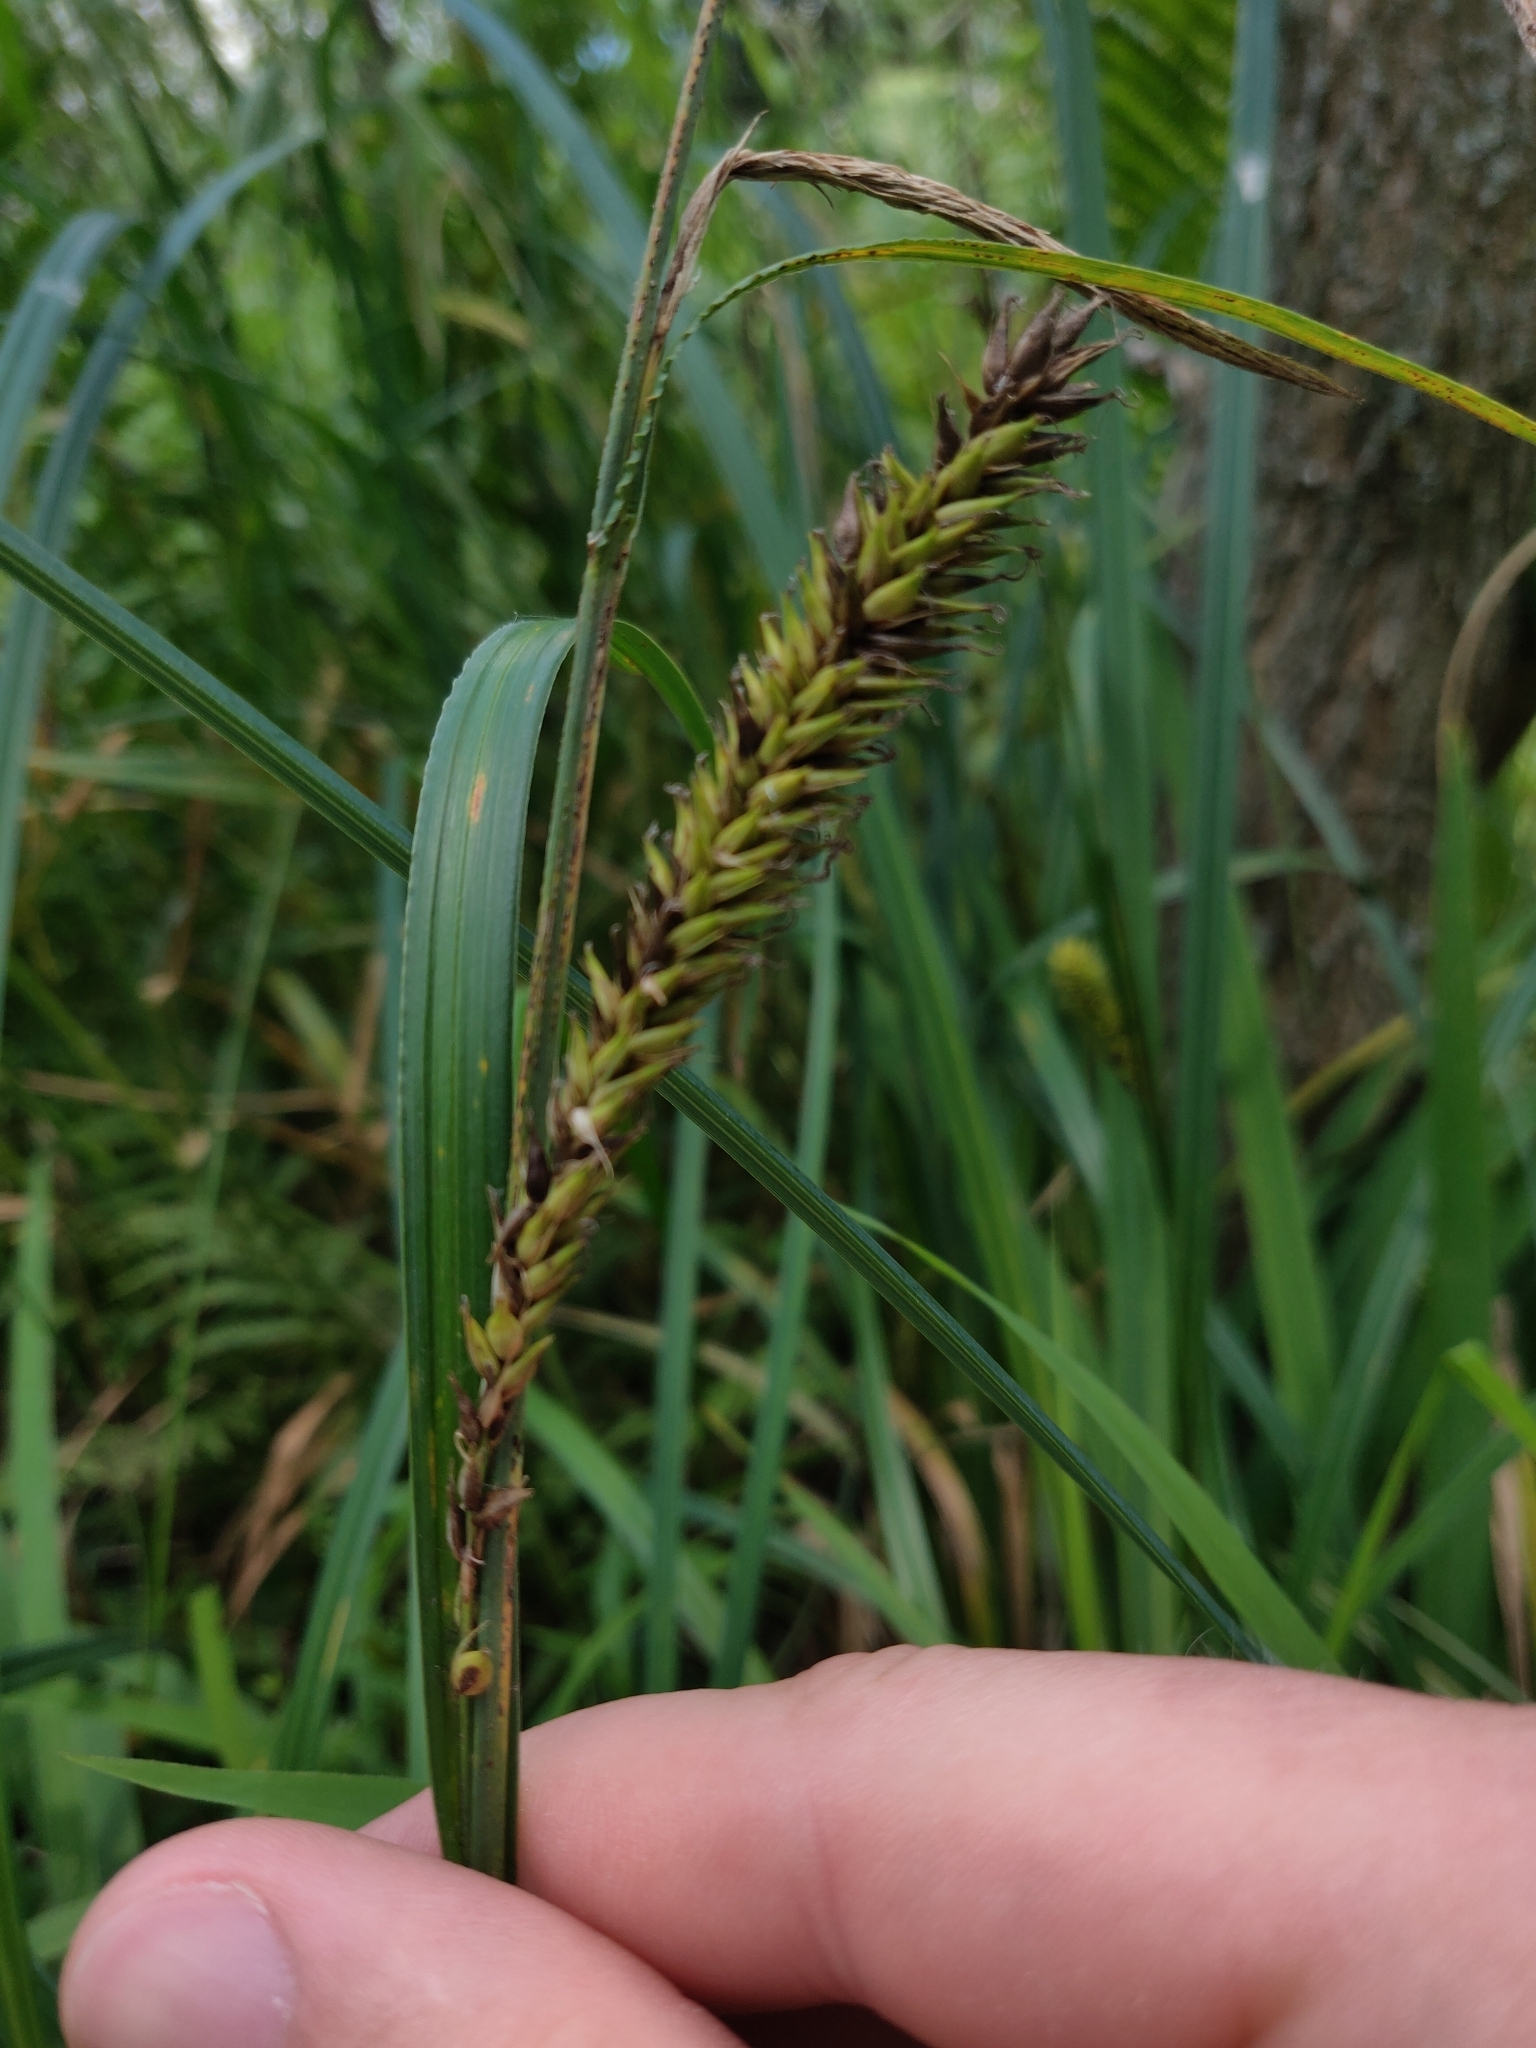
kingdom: Plantae
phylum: Tracheophyta
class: Liliopsida
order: Poales
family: Cyperaceae
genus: Carex
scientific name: Carex lacustris
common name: Common lake sedge
